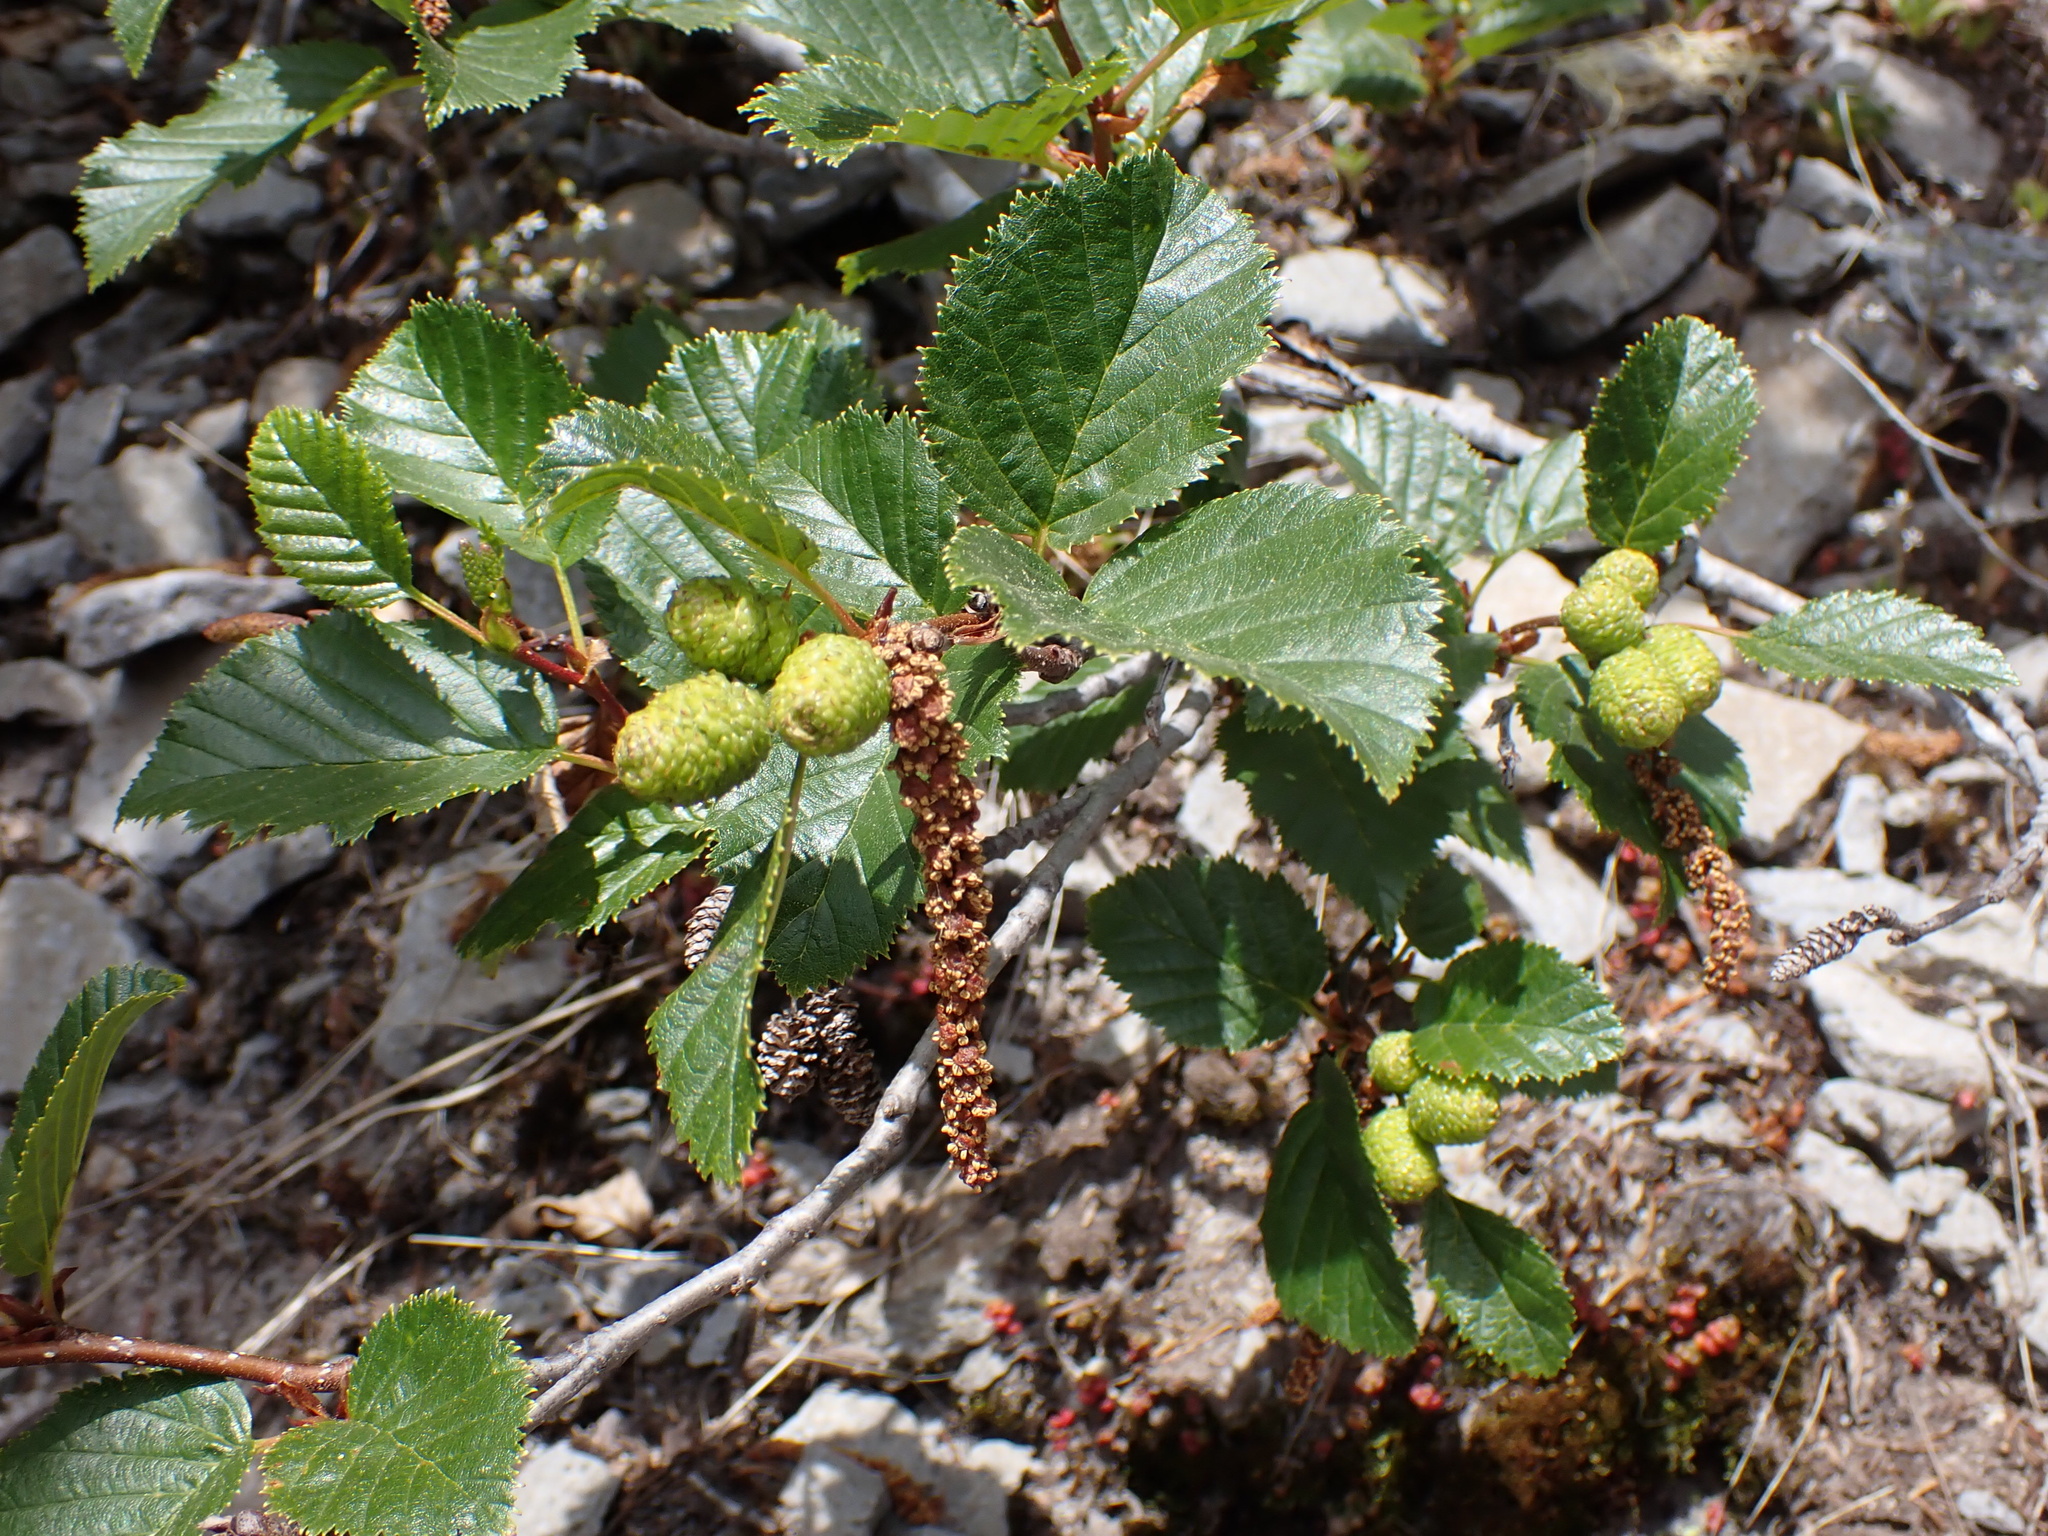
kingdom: Plantae
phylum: Tracheophyta
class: Magnoliopsida
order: Fagales
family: Betulaceae
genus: Alnus
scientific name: Alnus alnobetula
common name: Green alder
